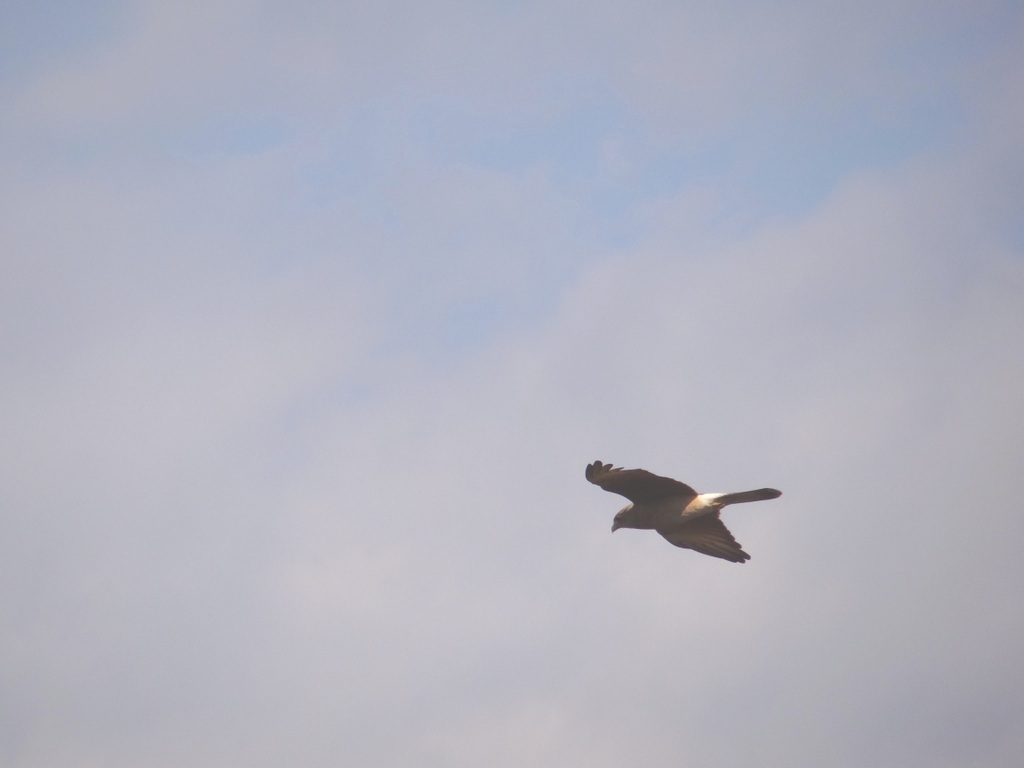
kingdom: Animalia
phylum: Chordata
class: Aves
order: Falconiformes
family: Falconidae
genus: Daptrius
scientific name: Daptrius
